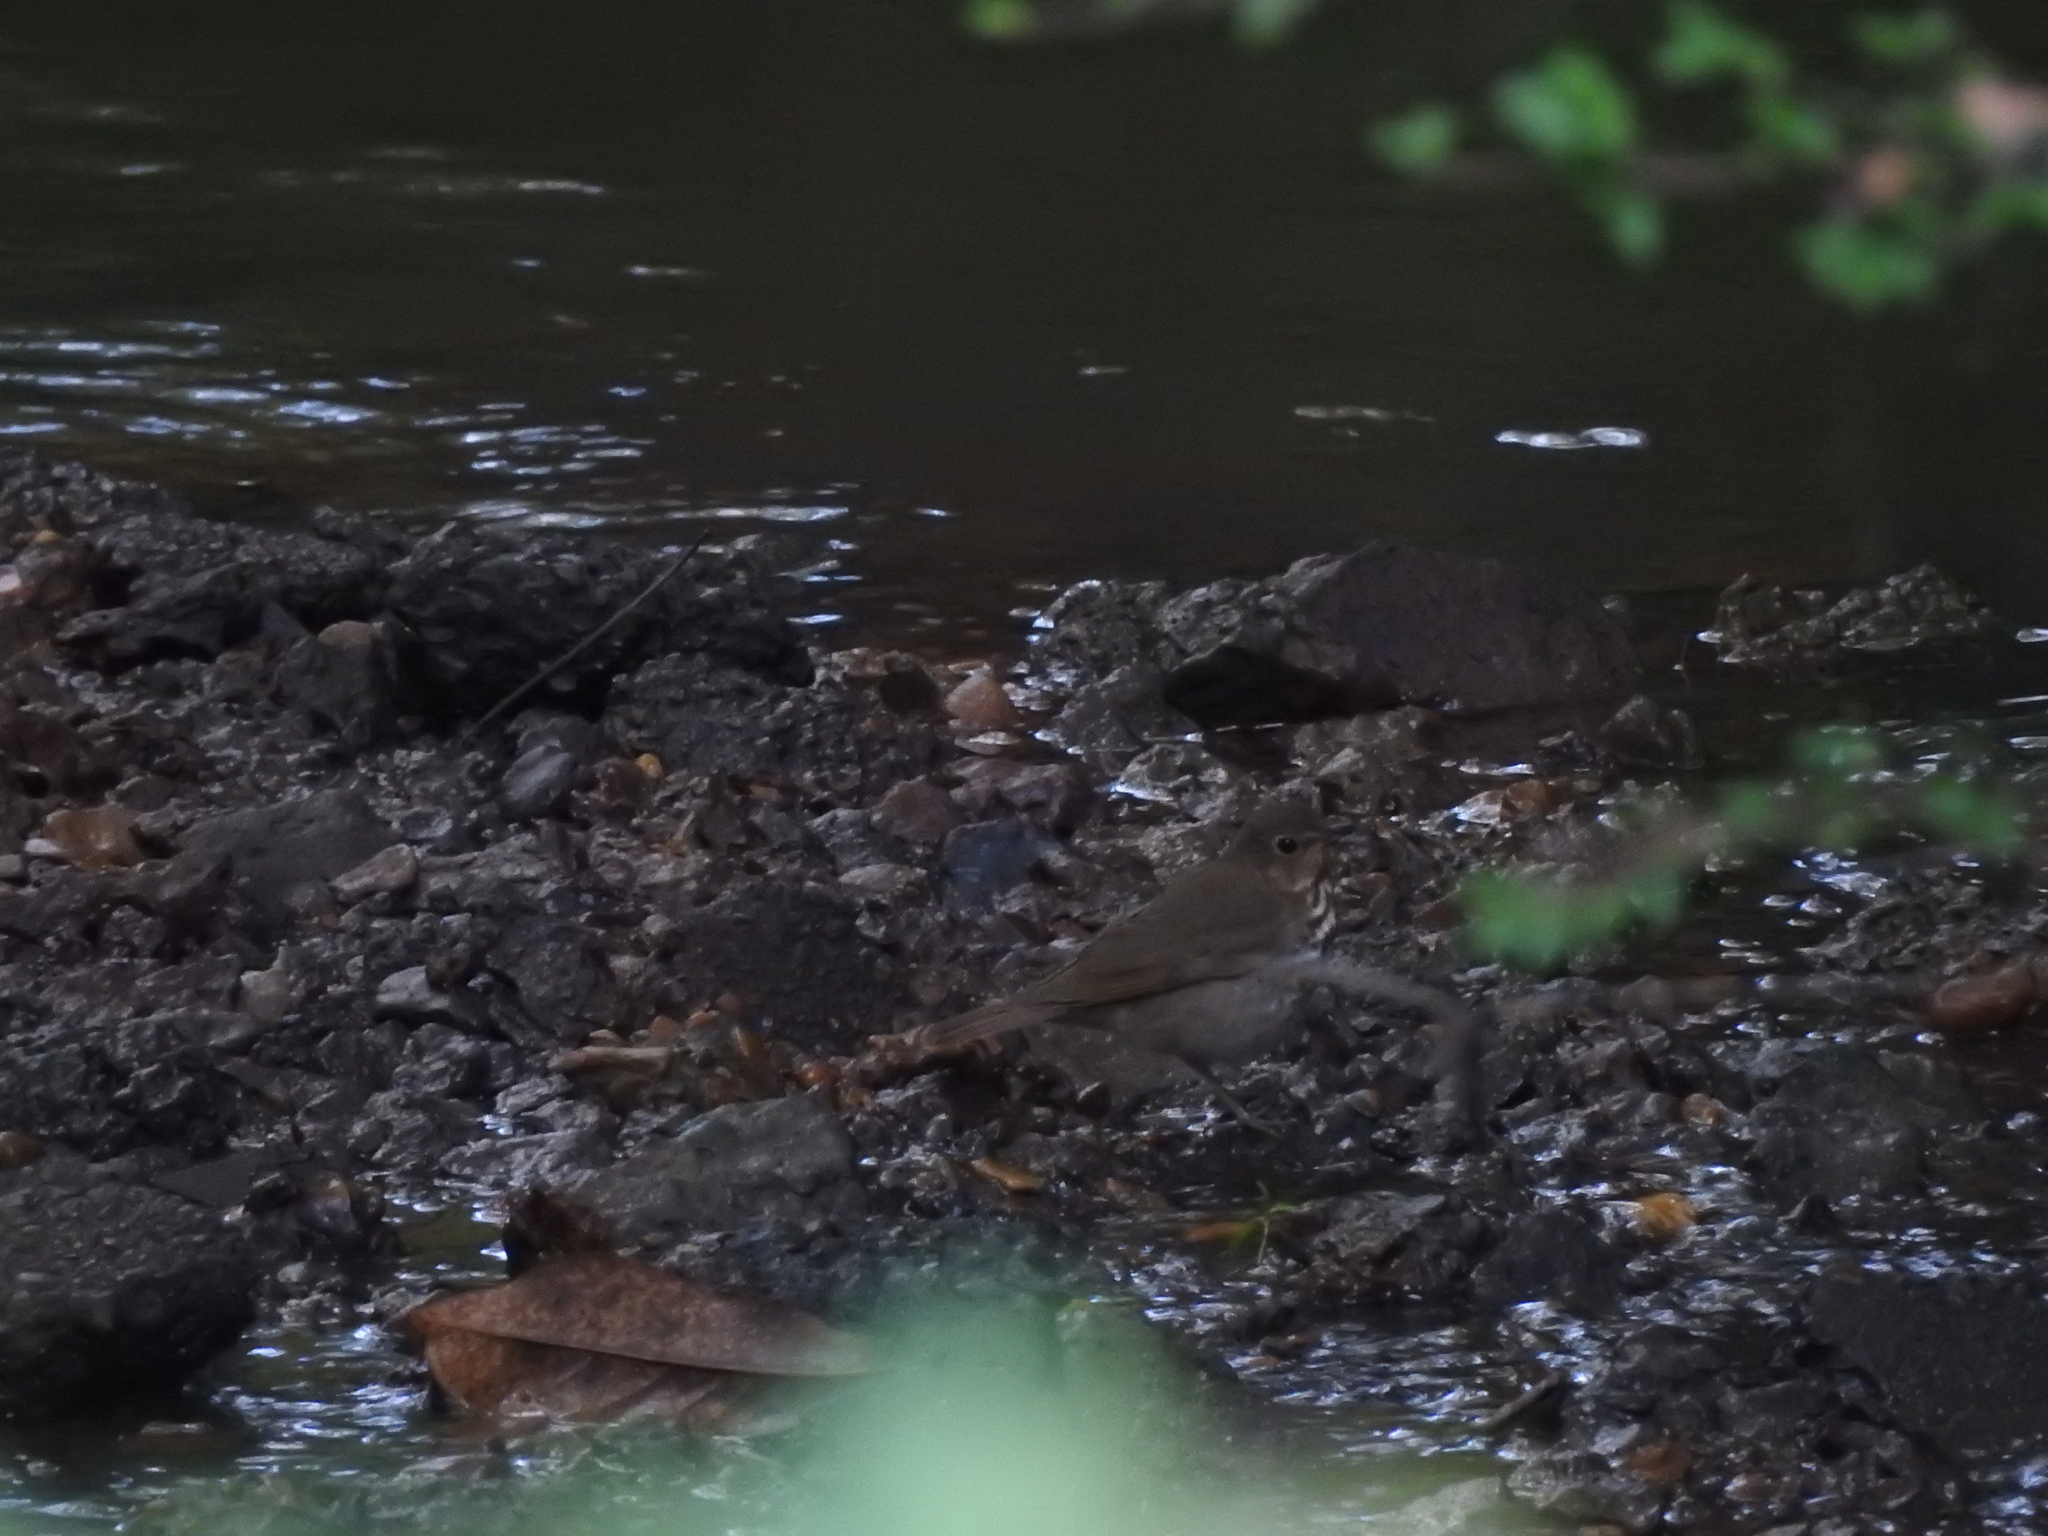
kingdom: Animalia
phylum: Chordata
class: Aves
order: Passeriformes
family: Turdidae
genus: Catharus
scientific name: Catharus ustulatus
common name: Swainson's thrush
